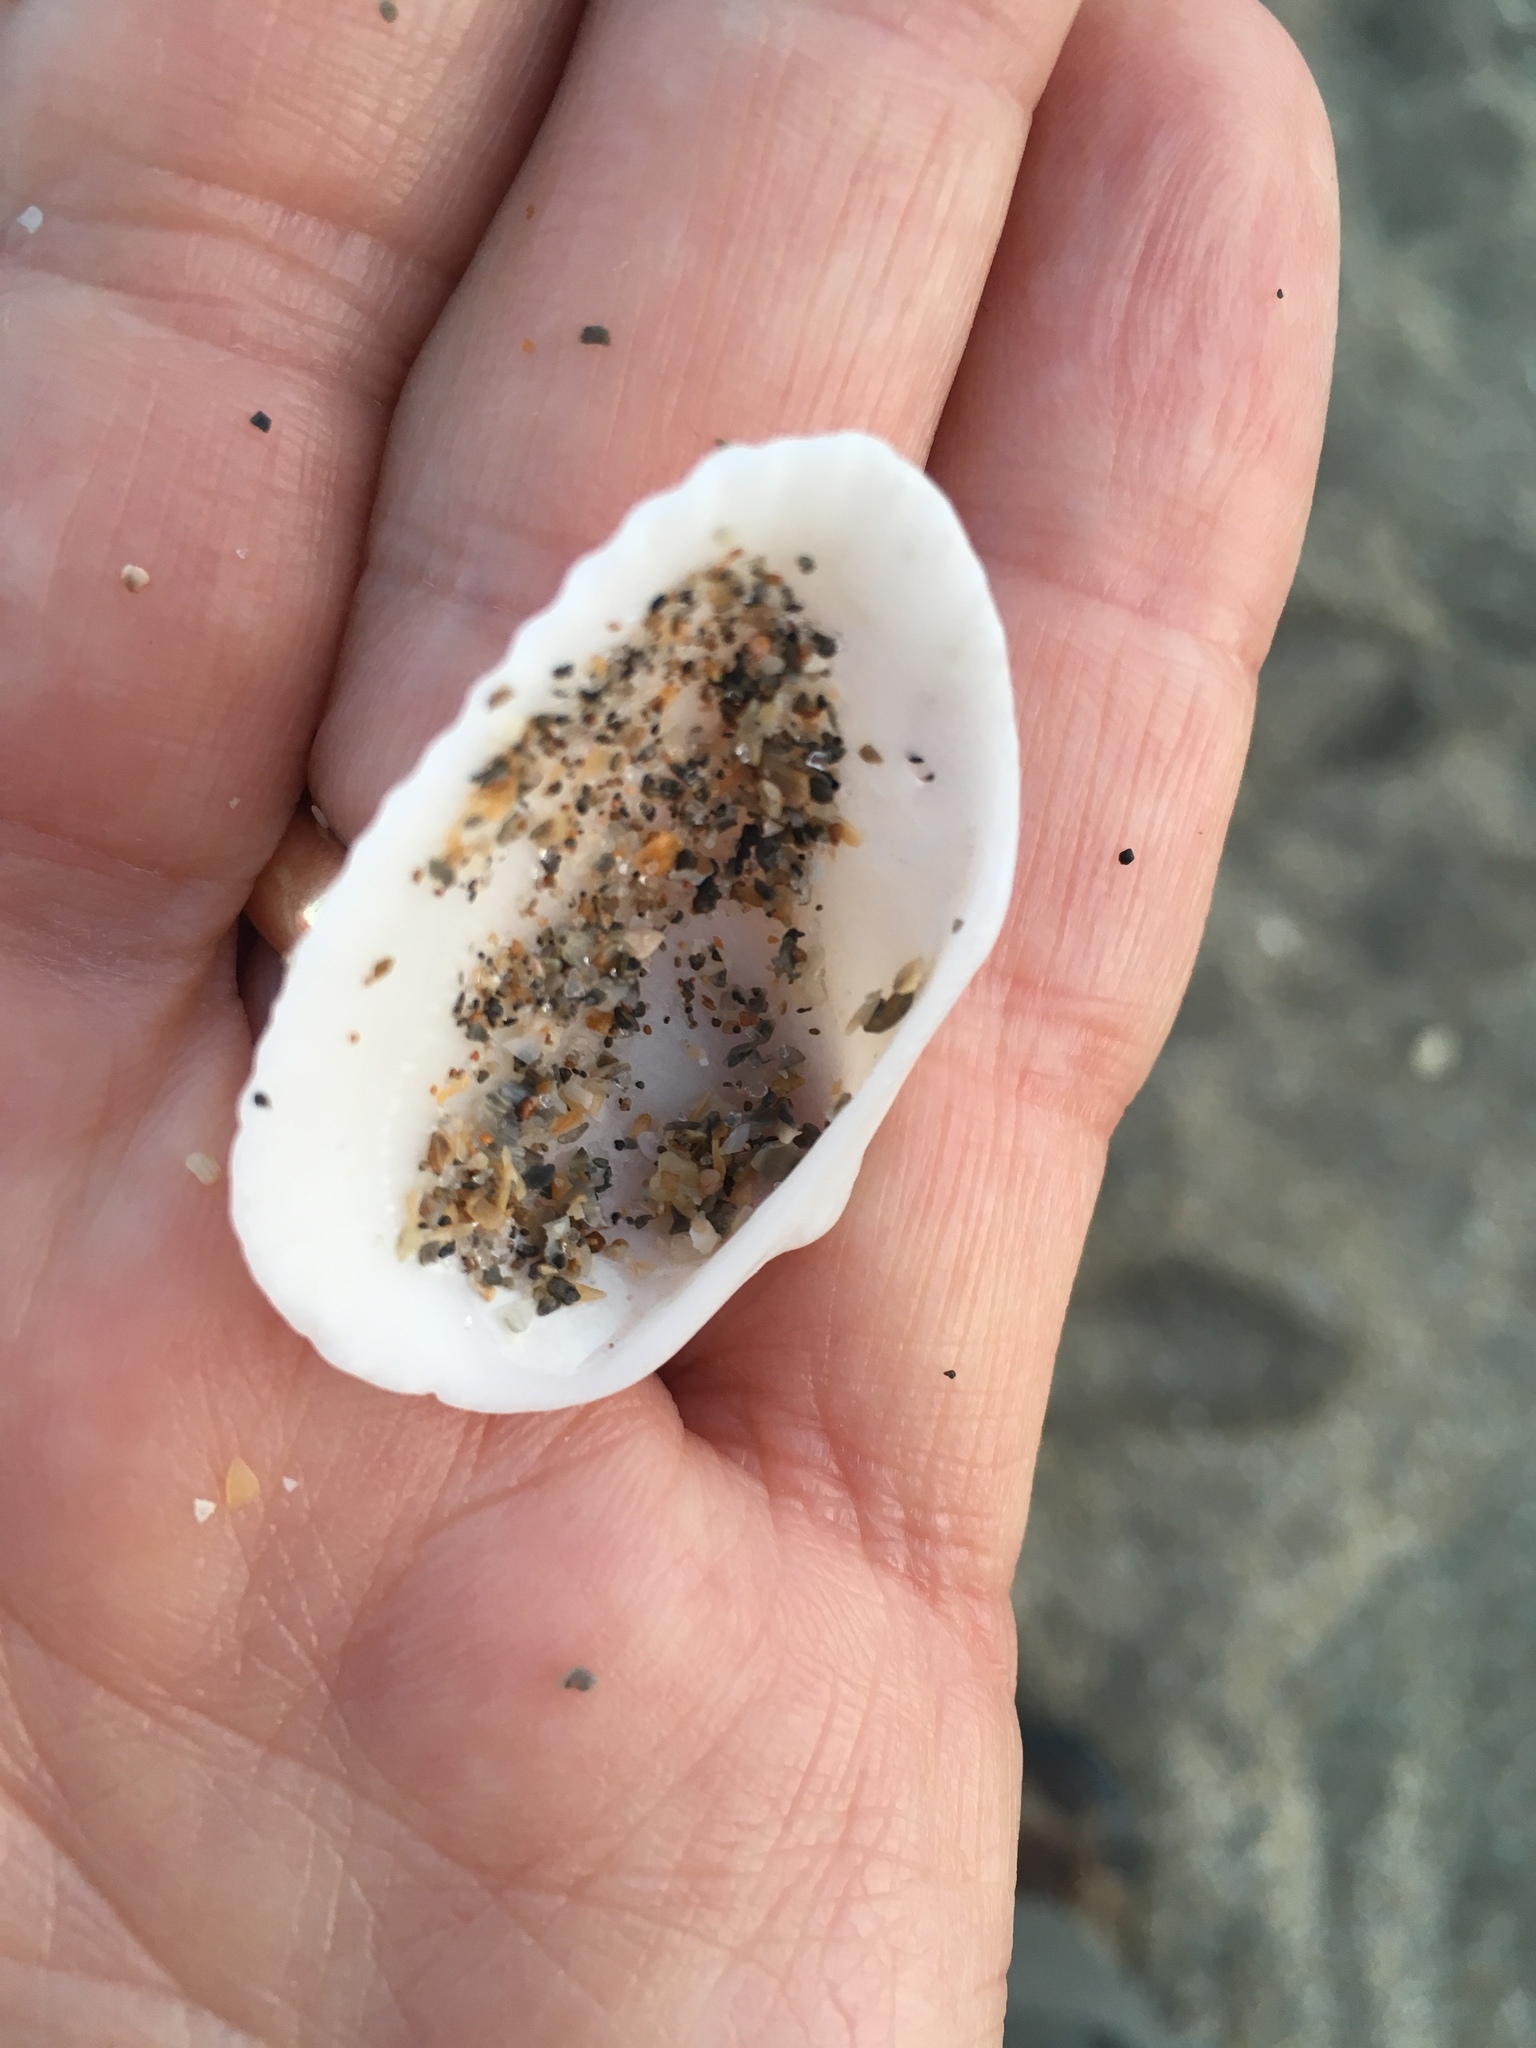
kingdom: Animalia
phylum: Mollusca
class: Bivalvia
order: Arcida
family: Arcidae
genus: Anadara
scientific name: Anadara transversa
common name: Transverse ark
